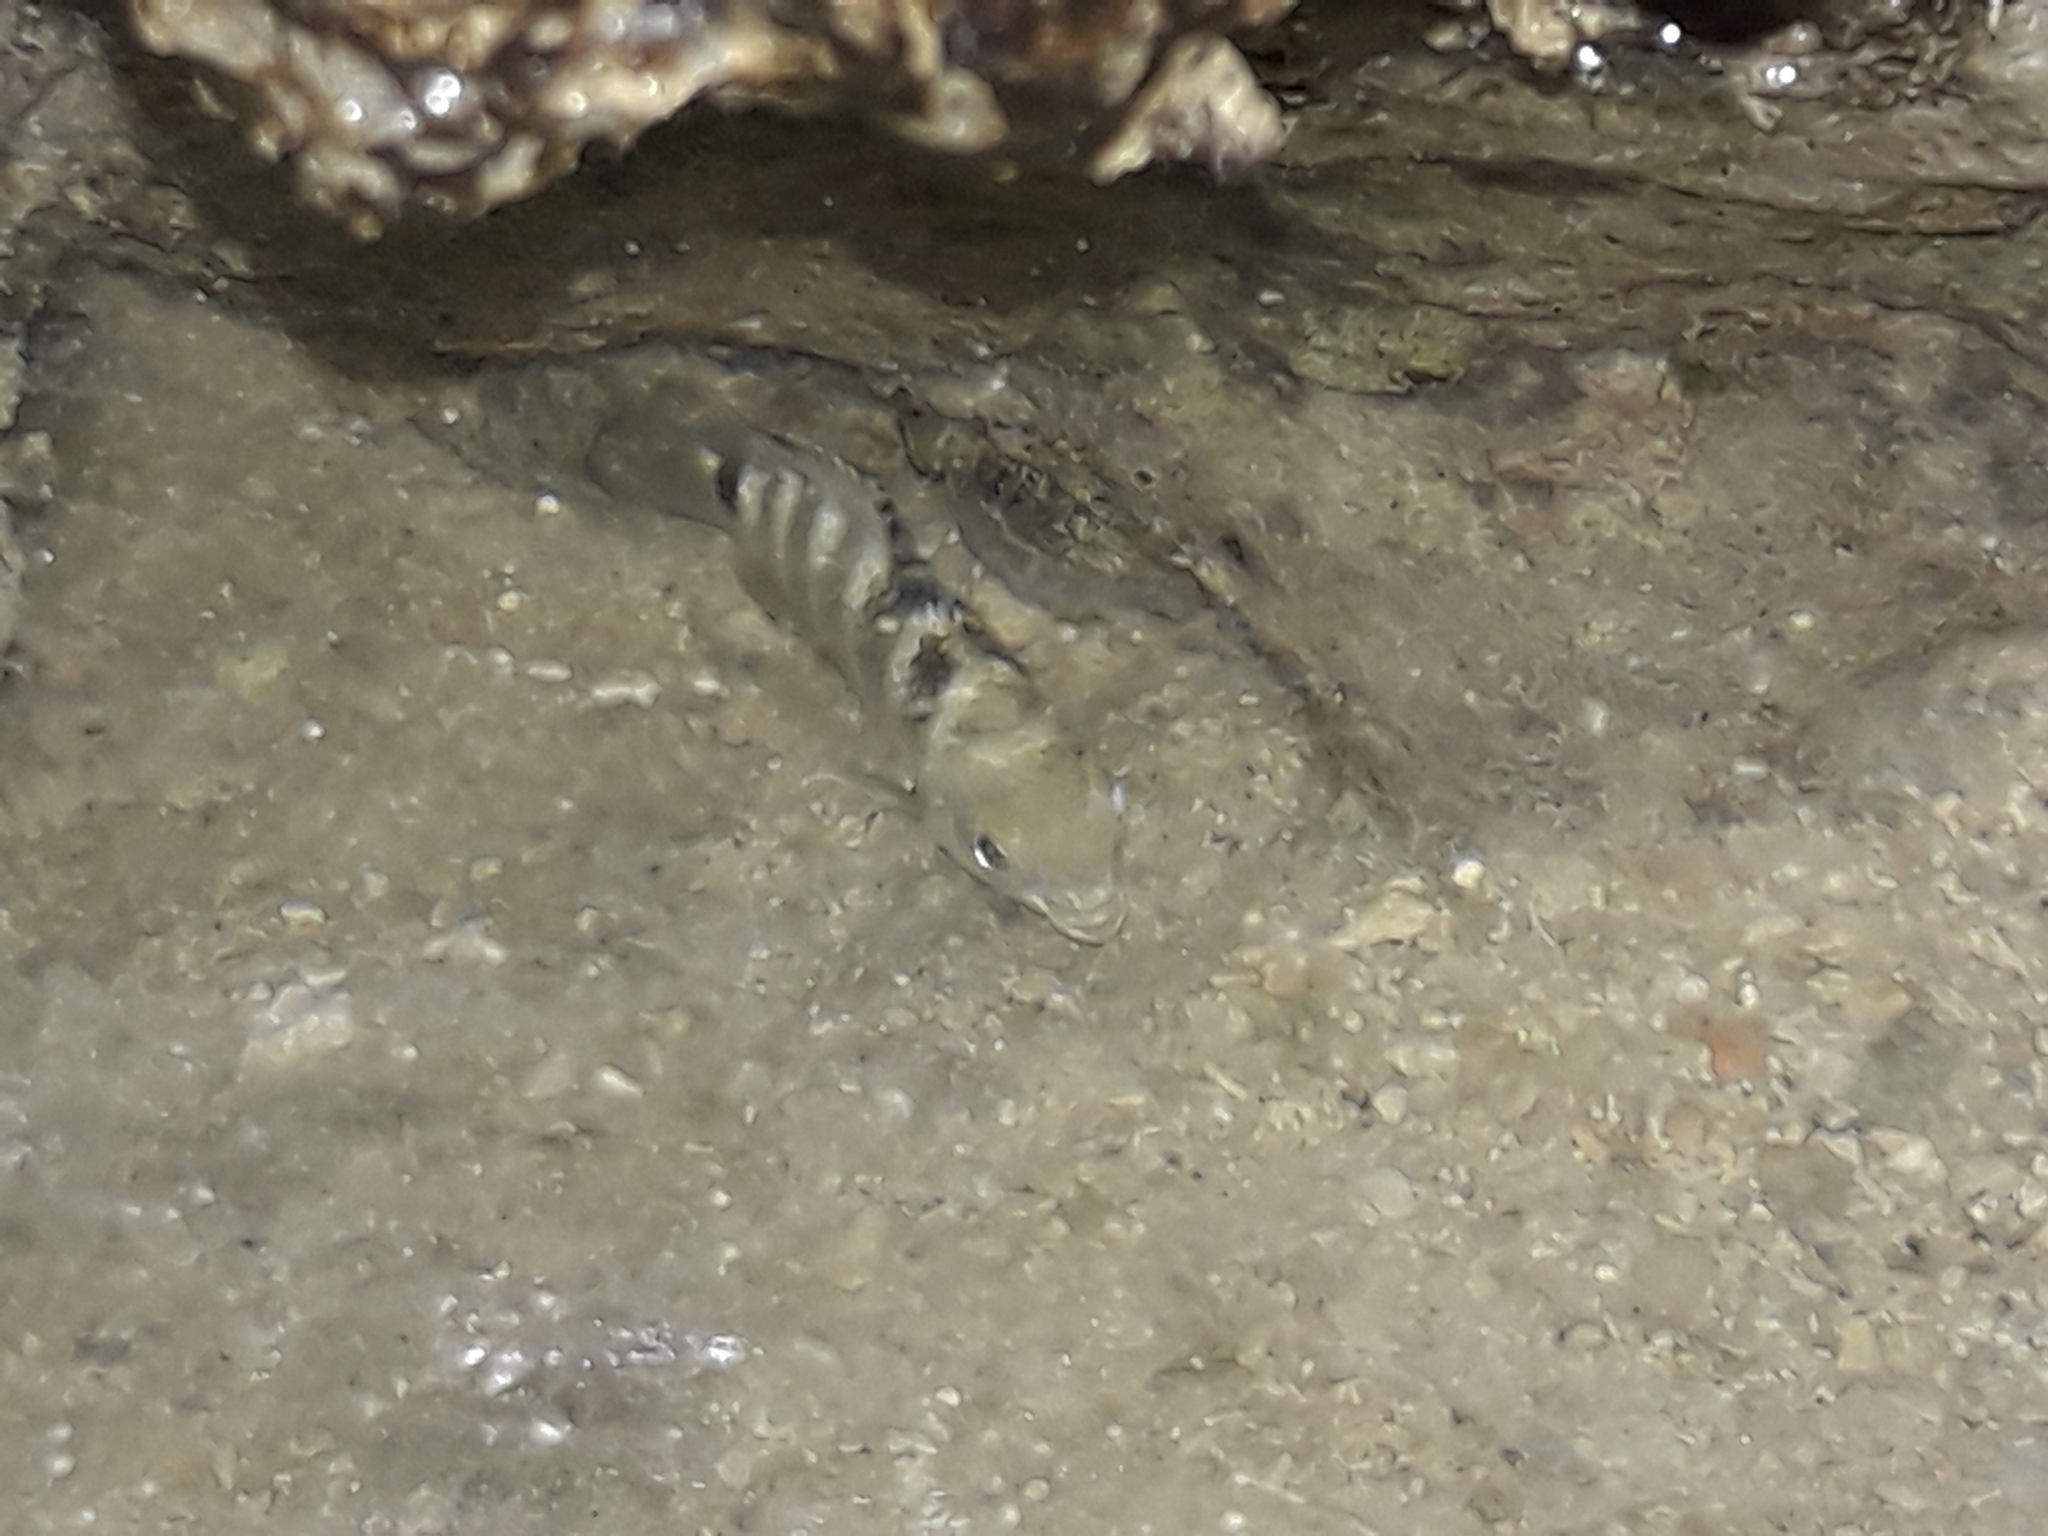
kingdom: Animalia
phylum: Chordata
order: Perciformes
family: Pomacentridae
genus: Abudefduf
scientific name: Abudefduf septemfasciatus
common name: Banded sergeant
